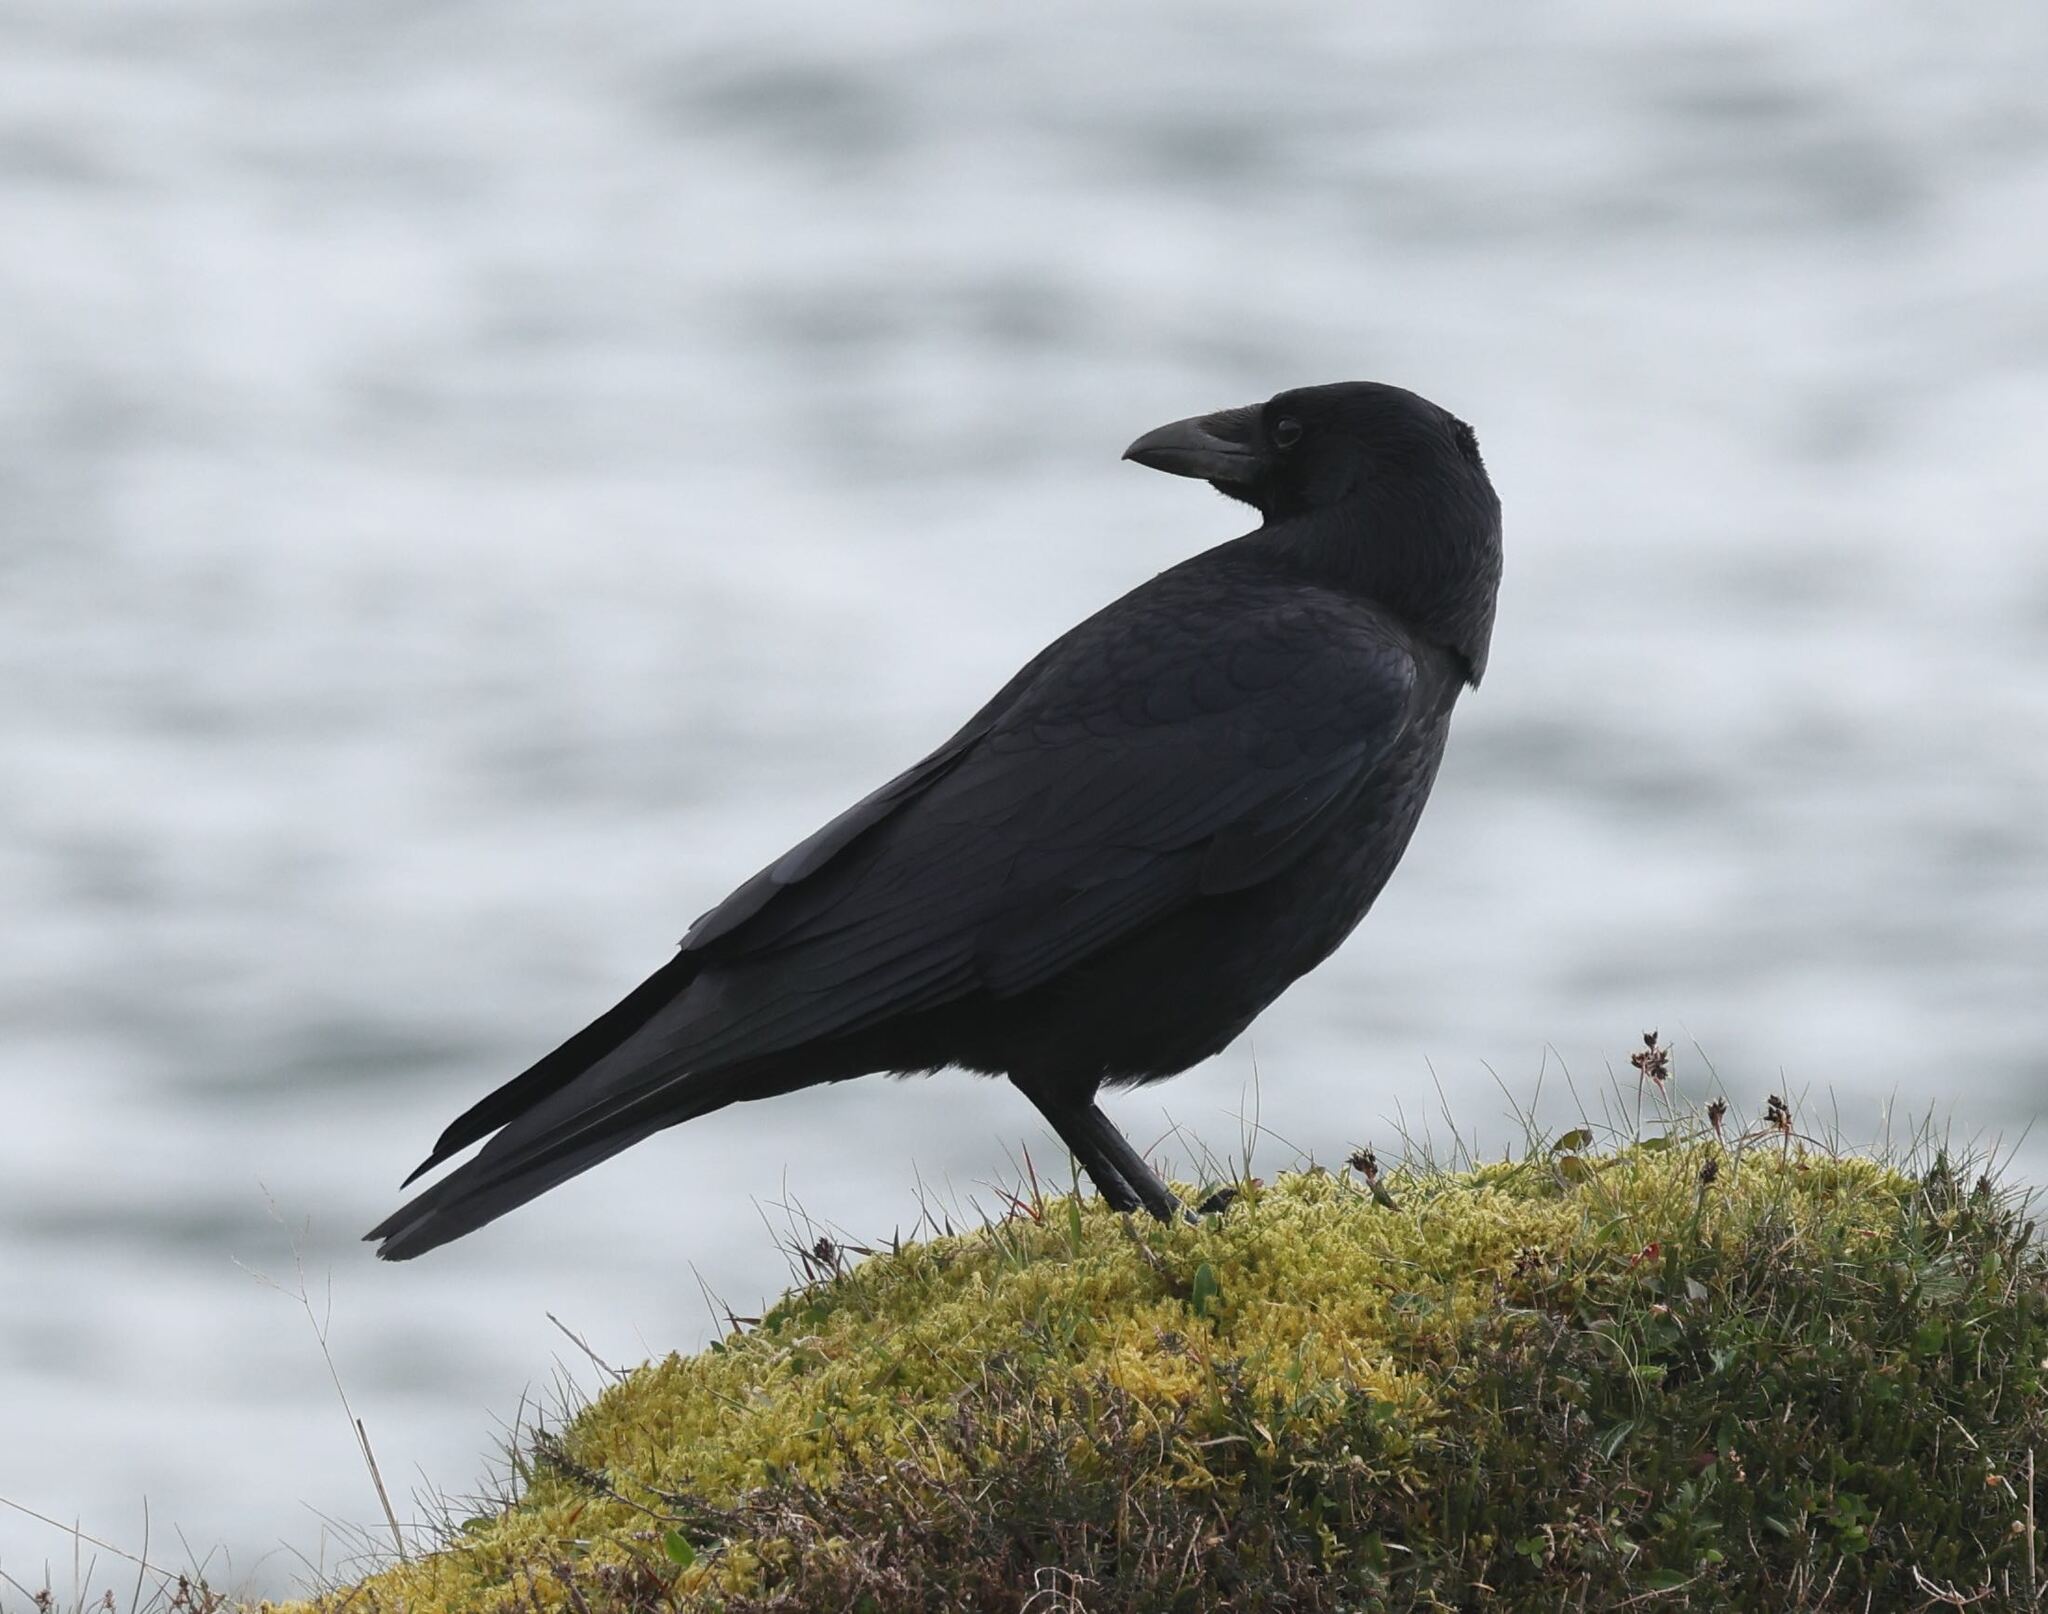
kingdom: Animalia
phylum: Chordata
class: Aves
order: Passeriformes
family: Corvidae
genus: Corvus
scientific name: Corvus corone
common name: Carrion crow
